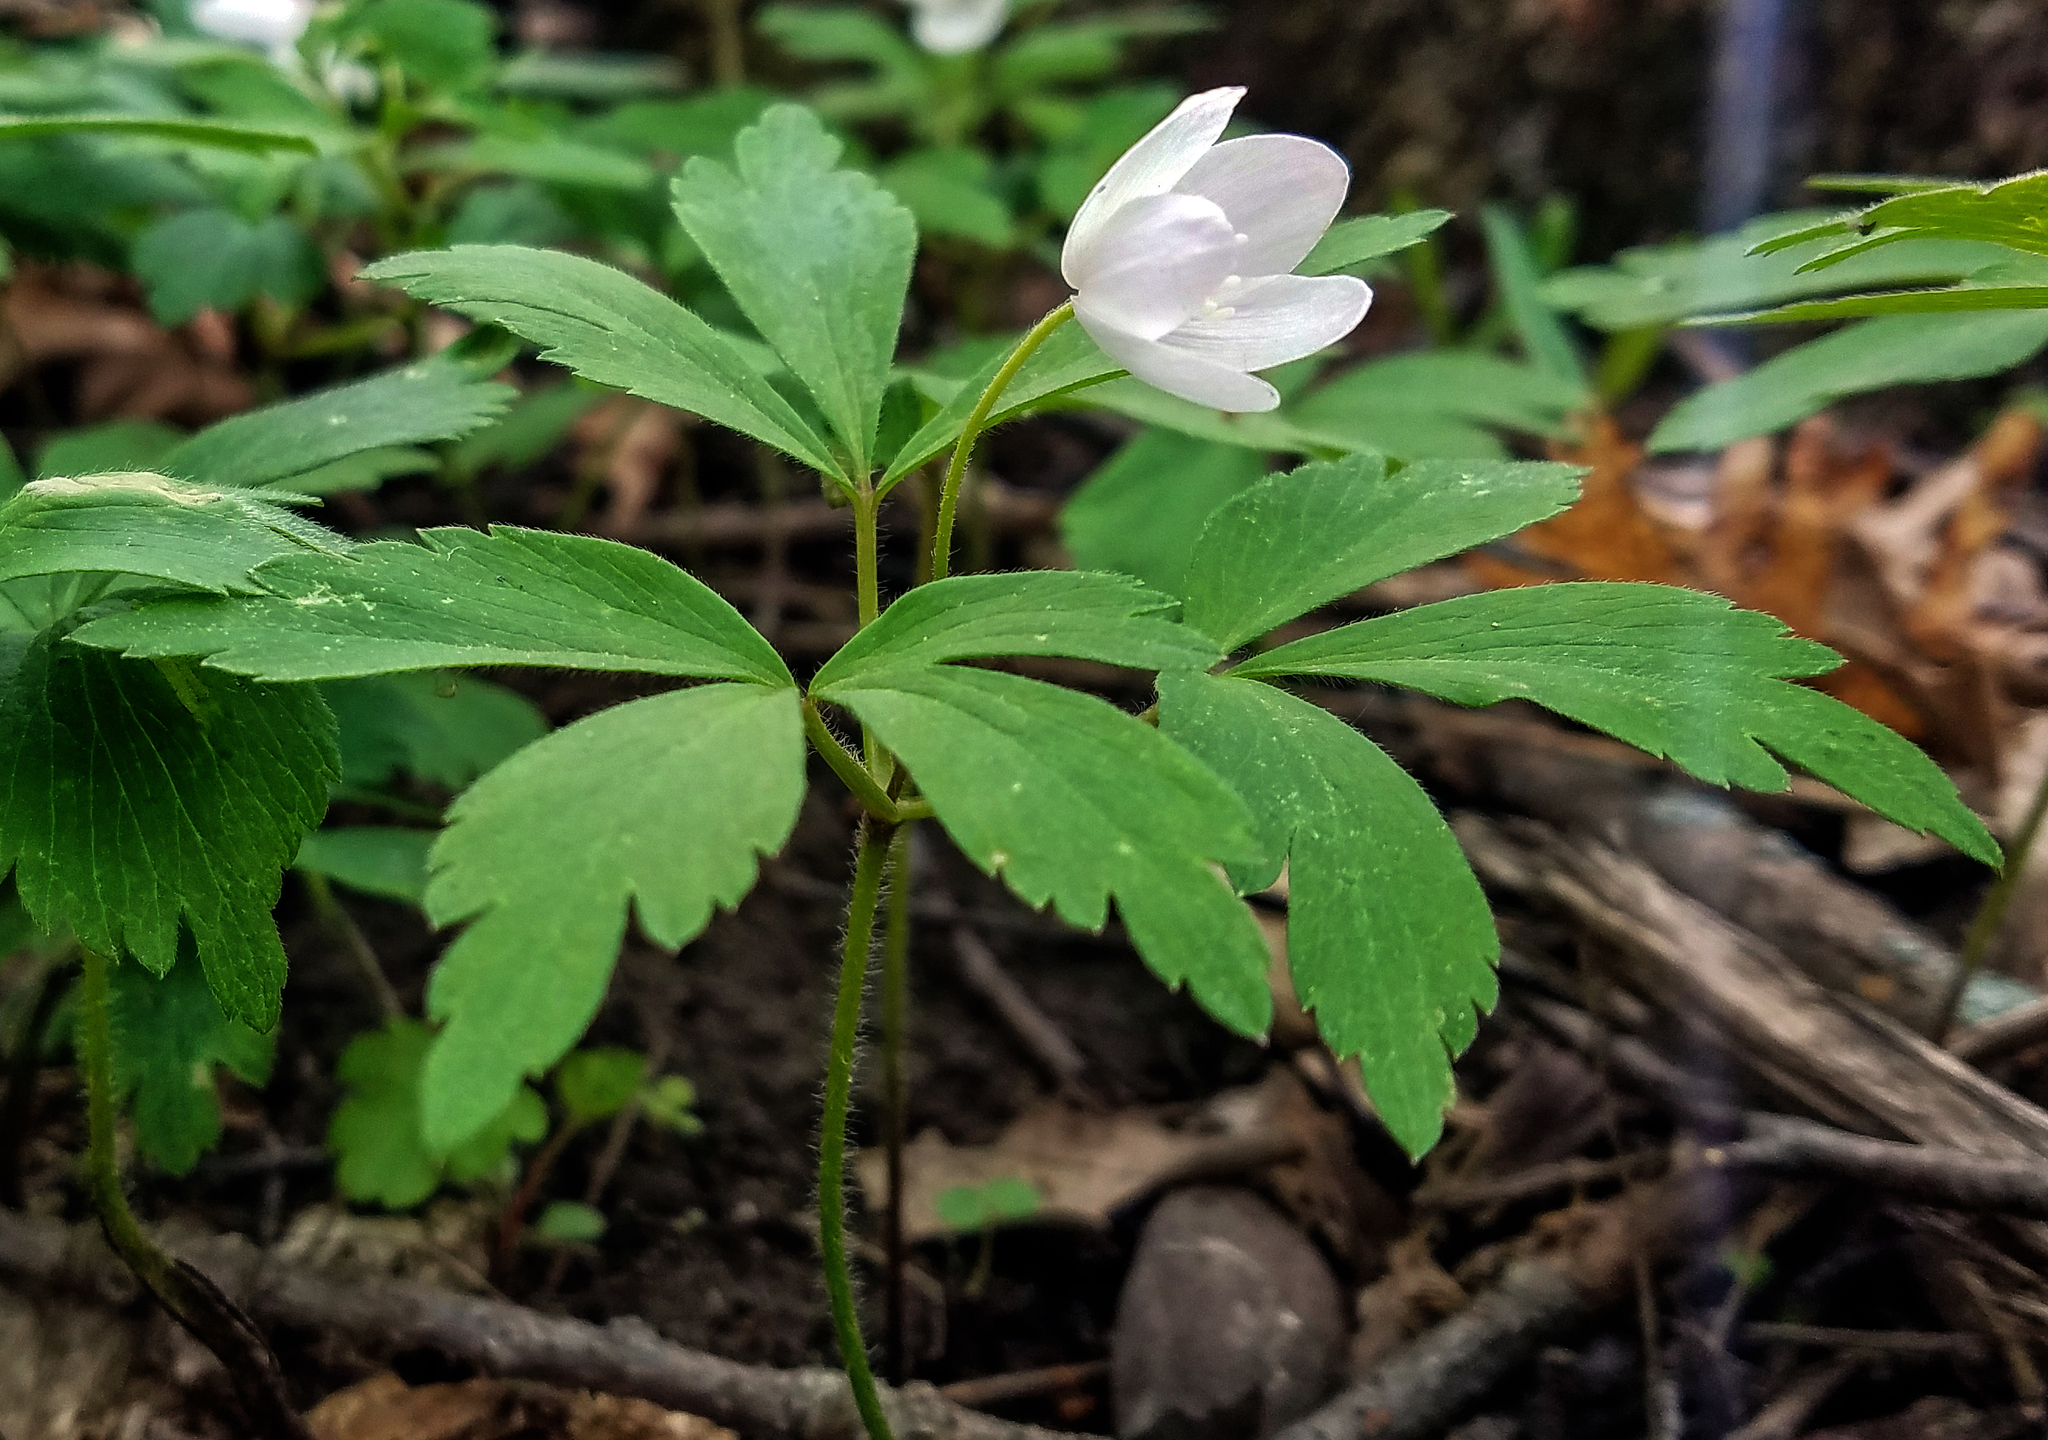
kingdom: Plantae
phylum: Tracheophyta
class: Magnoliopsida
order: Ranunculales
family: Ranunculaceae
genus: Anemone
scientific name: Anemone quinquefolia
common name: Wood anemone
